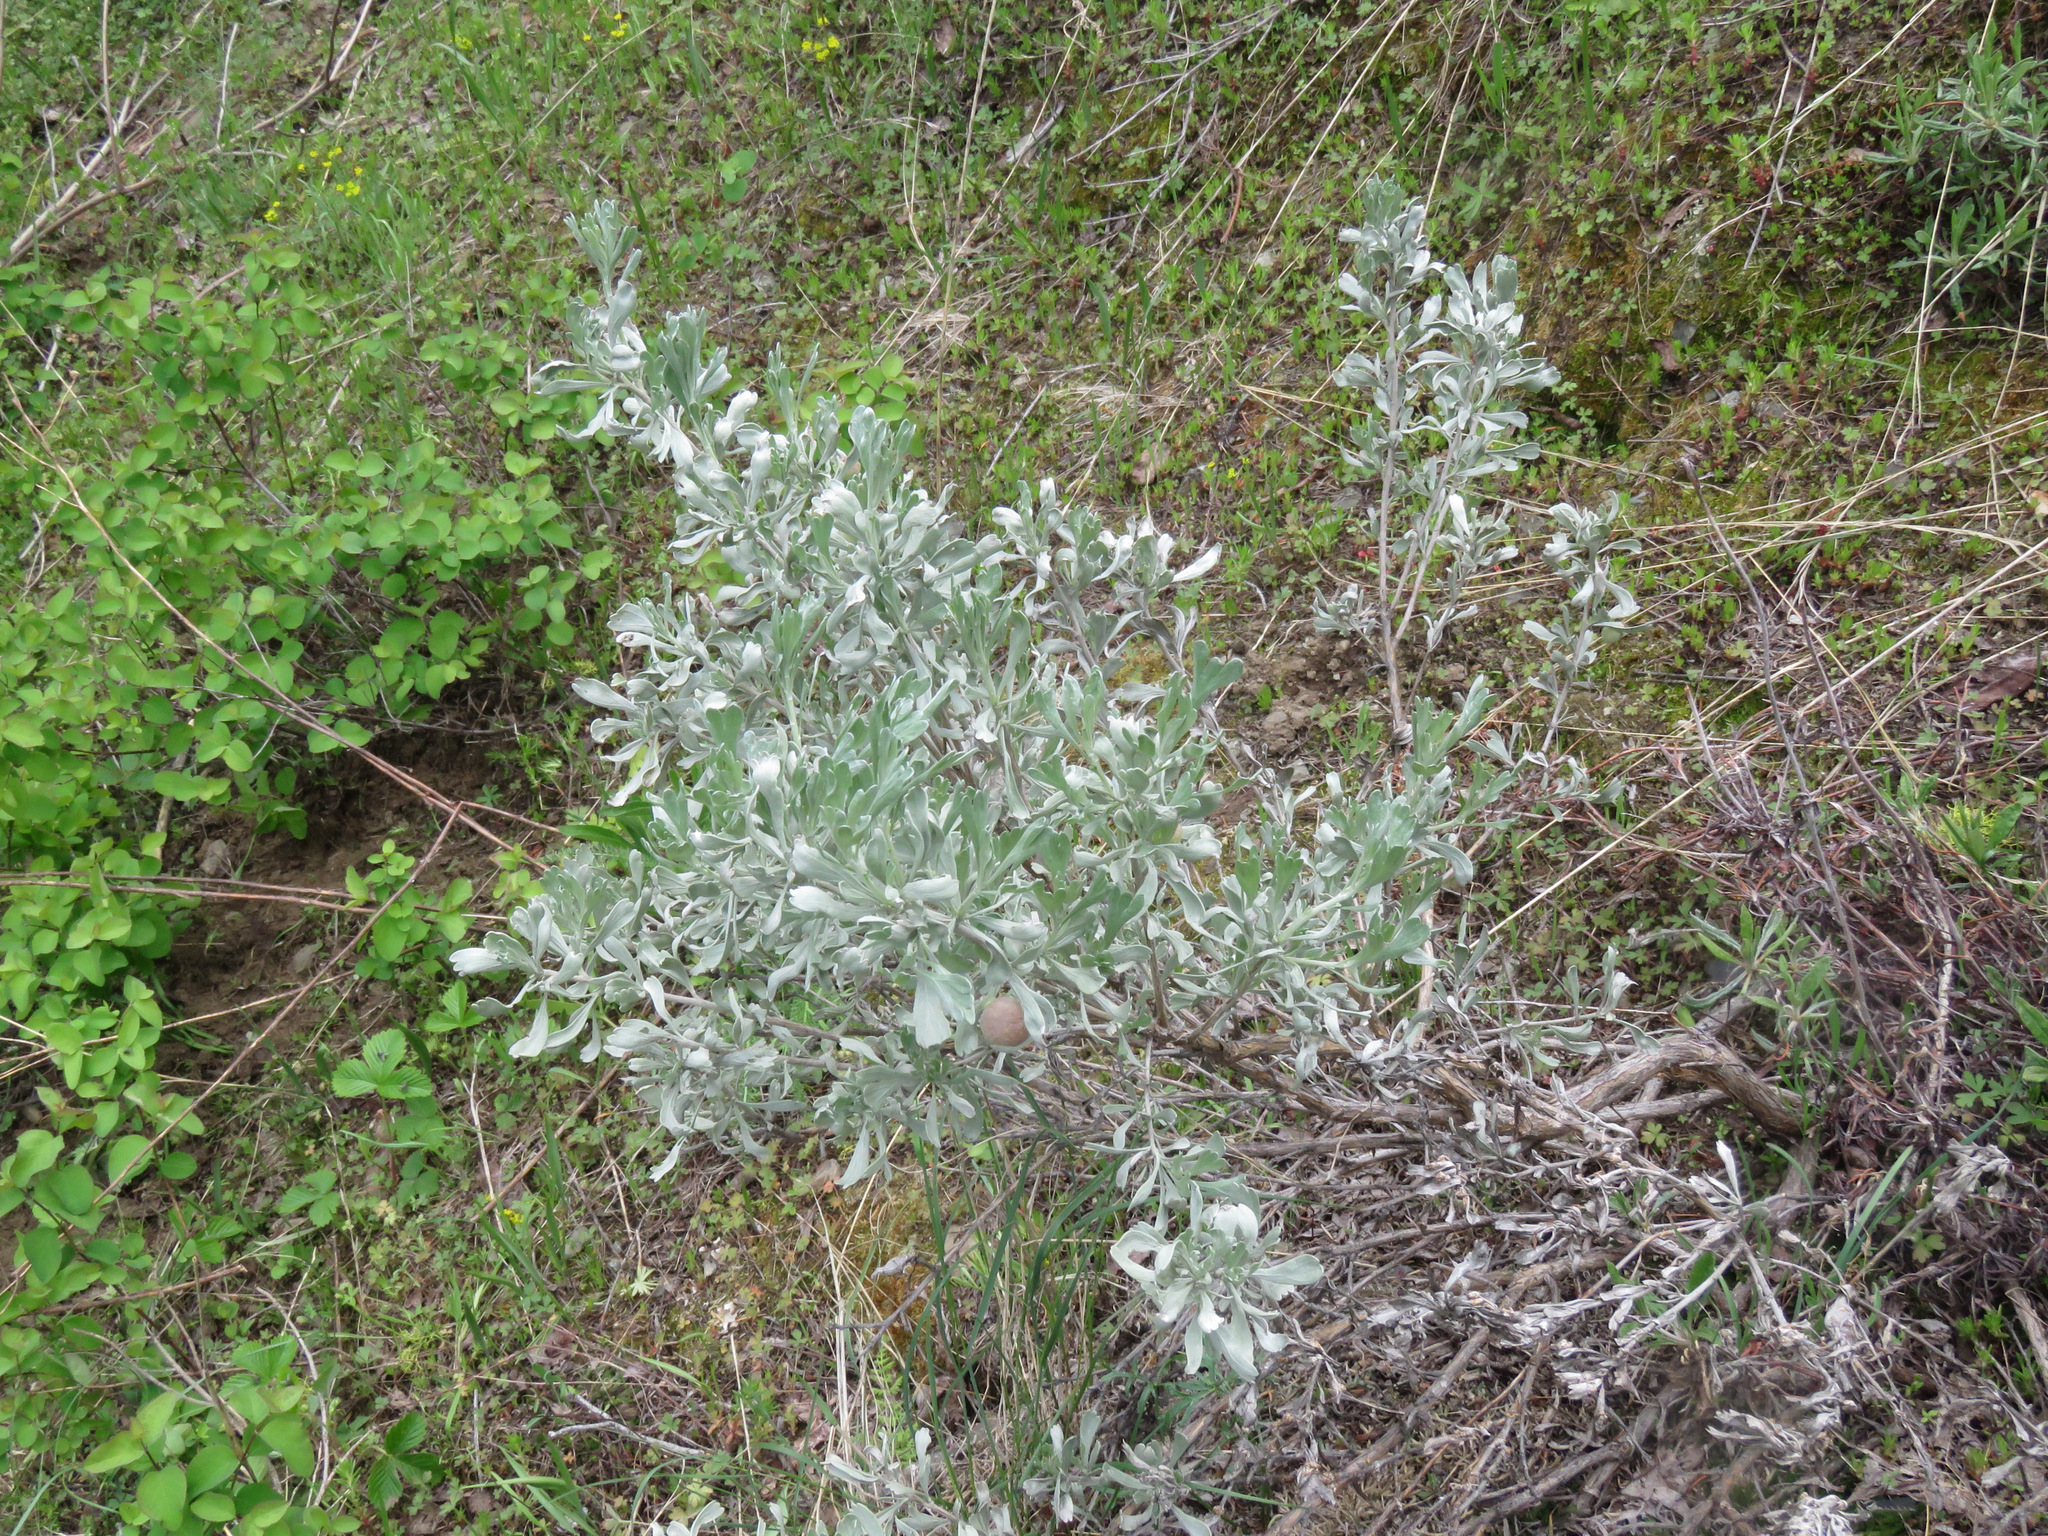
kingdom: Plantae
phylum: Tracheophyta
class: Magnoliopsida
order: Asterales
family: Asteraceae
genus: Artemisia
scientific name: Artemisia tridentata
